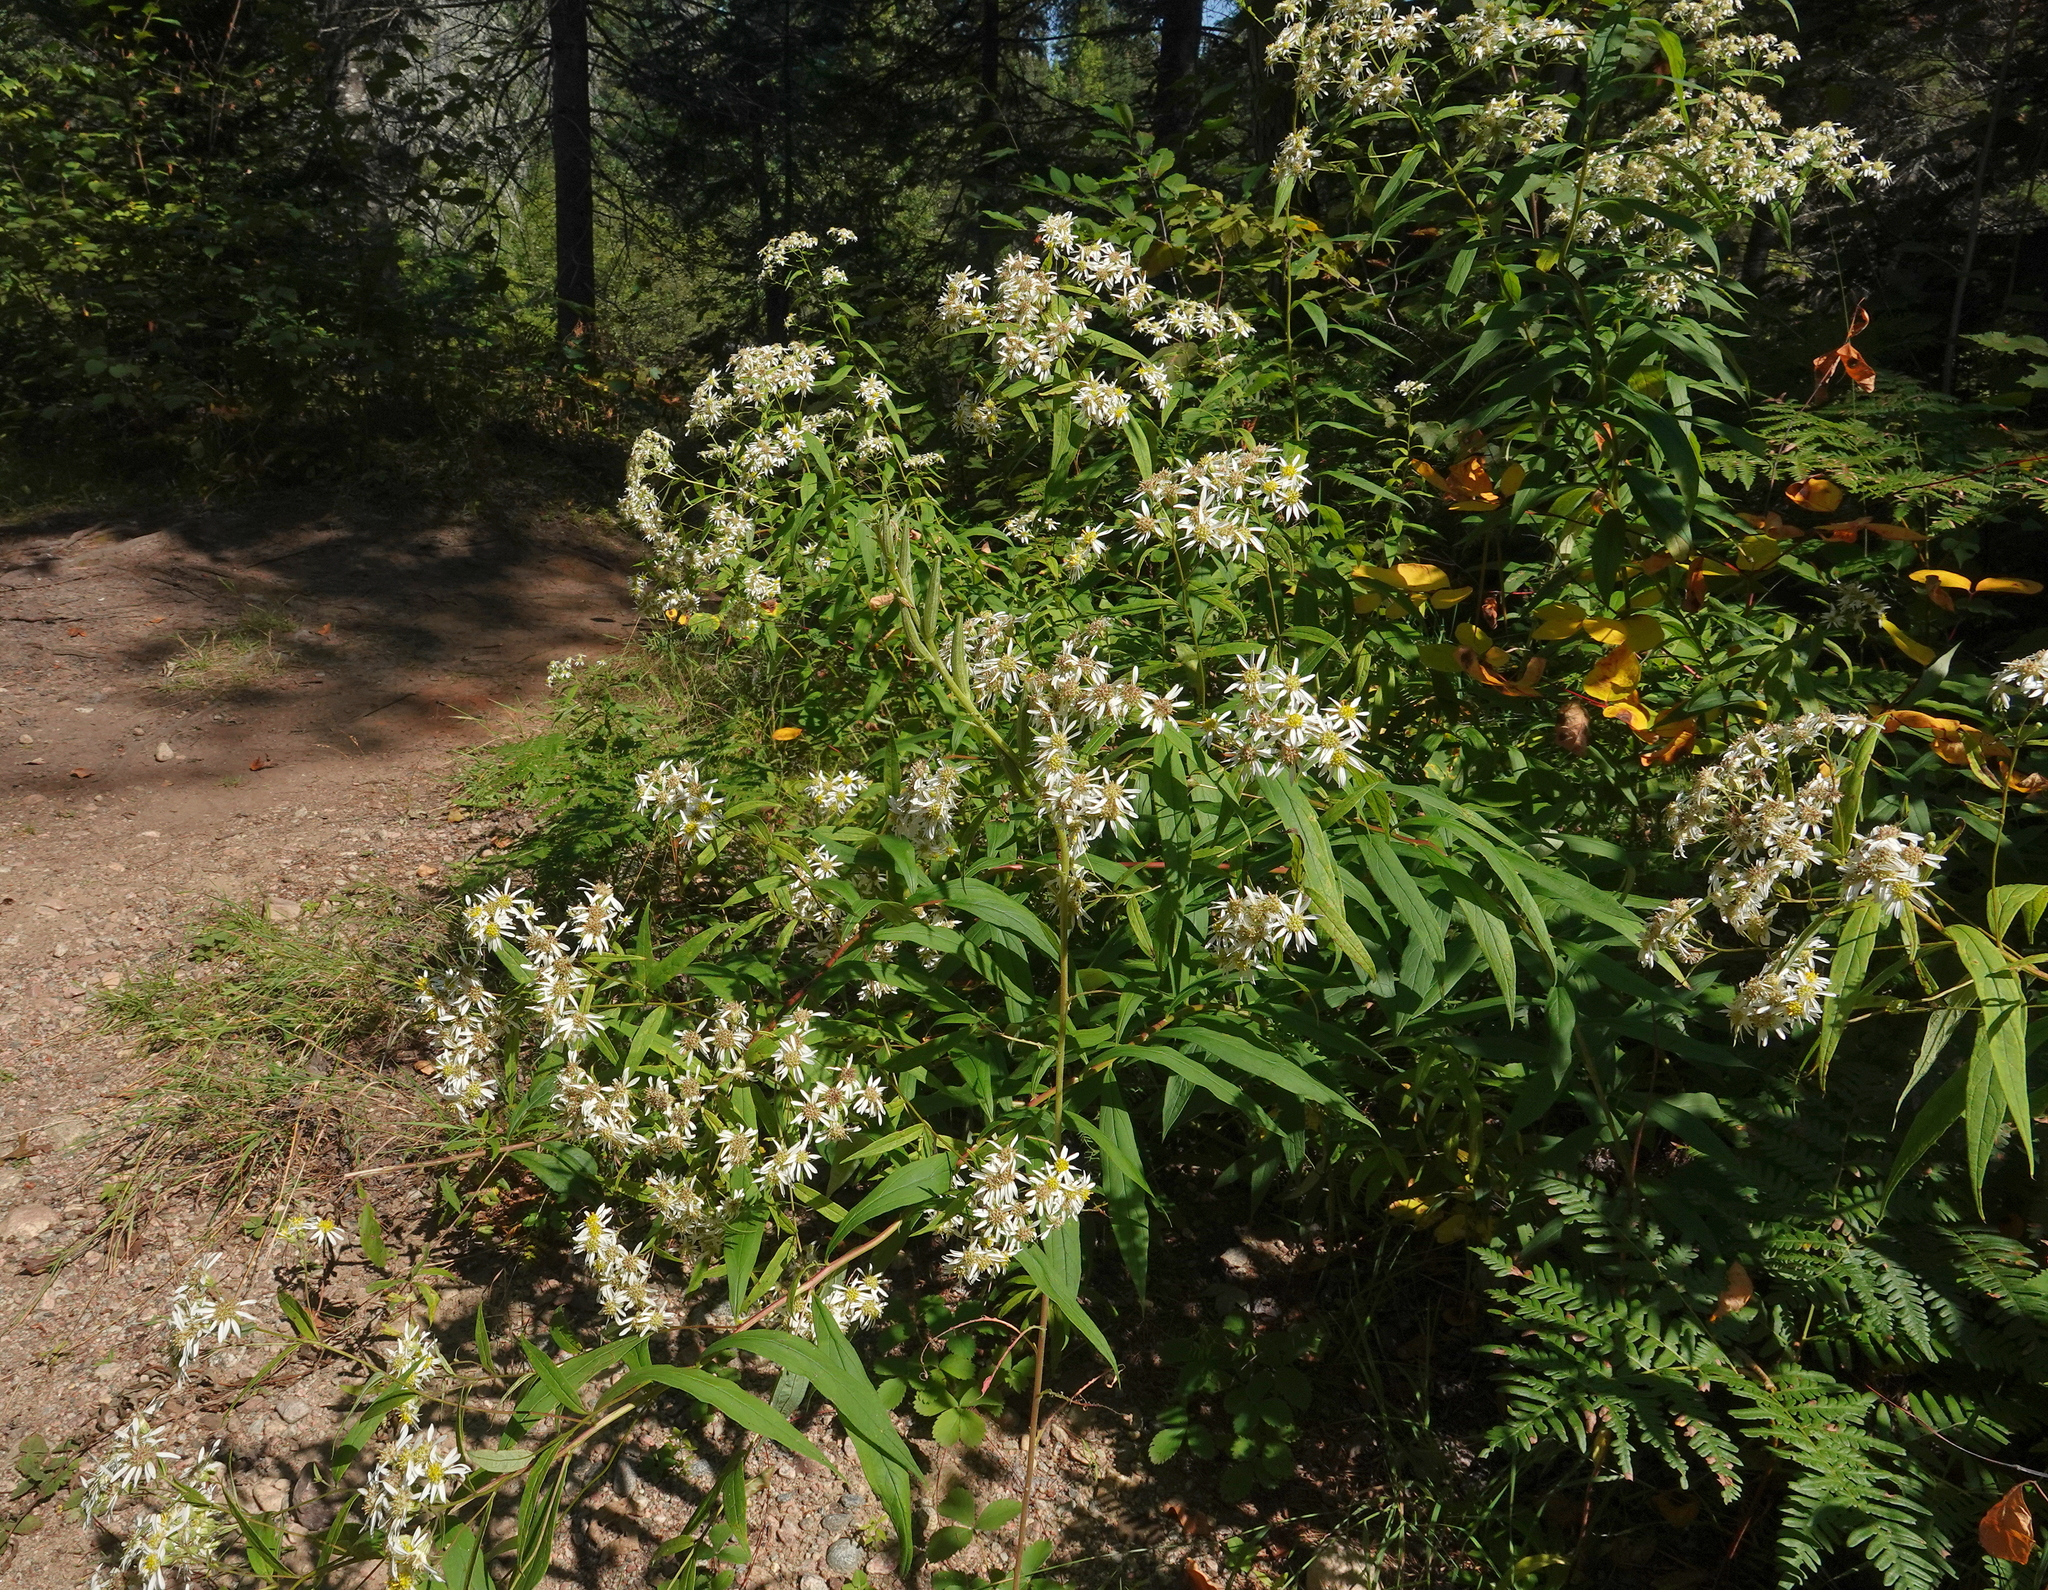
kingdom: Plantae
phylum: Tracheophyta
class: Magnoliopsida
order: Asterales
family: Asteraceae
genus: Doellingeria
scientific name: Doellingeria umbellata
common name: Flat-top white aster
